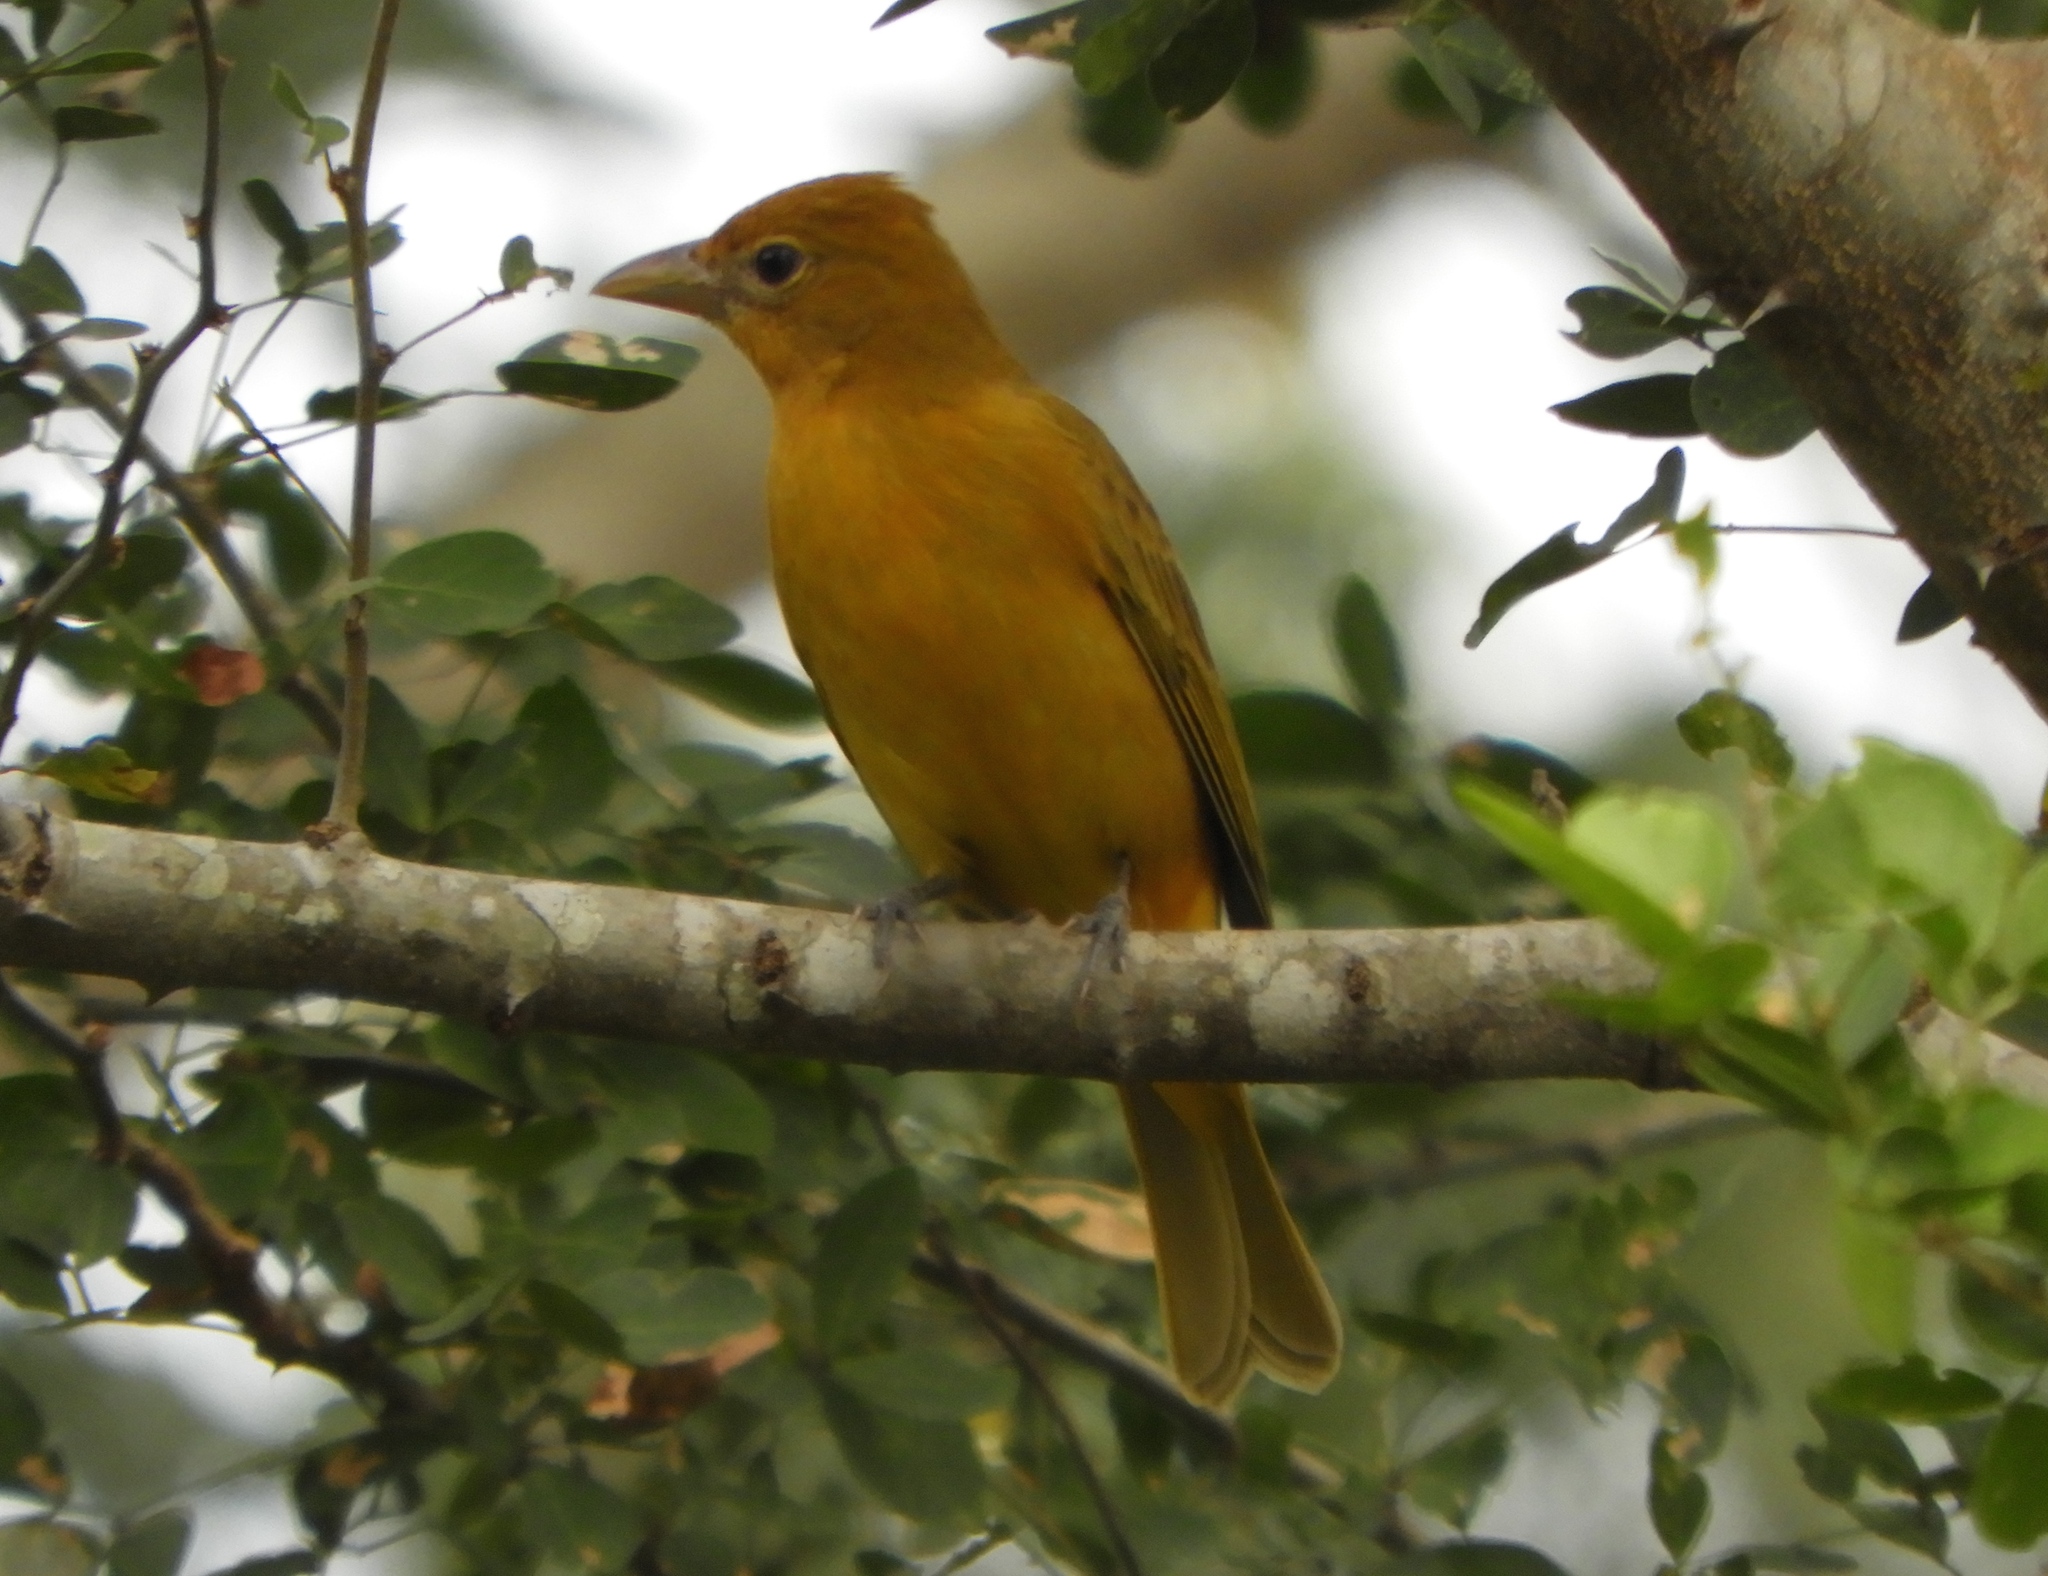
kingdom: Animalia
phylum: Chordata
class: Aves
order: Passeriformes
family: Cardinalidae
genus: Piranga
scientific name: Piranga rubra
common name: Summer tanager
